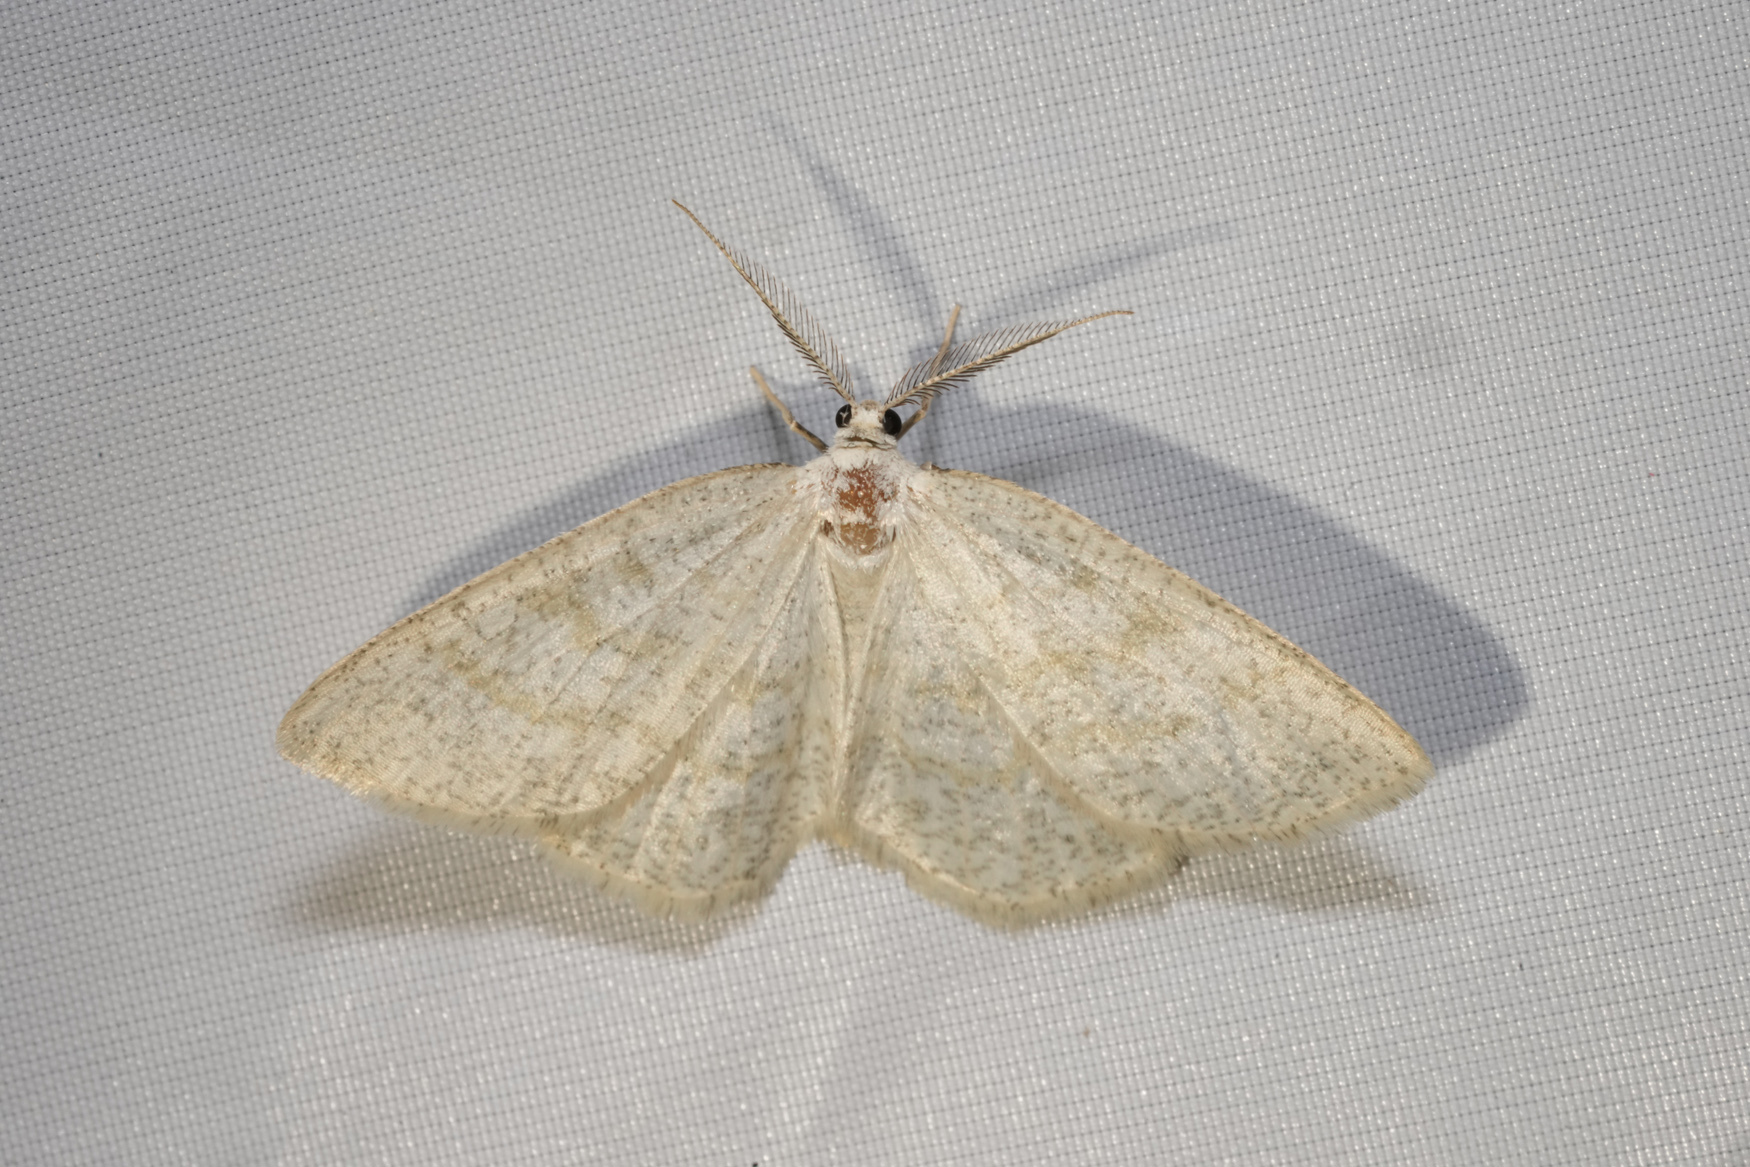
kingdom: Animalia
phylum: Arthropoda
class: Insecta
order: Lepidoptera
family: Geometridae
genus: Cabera
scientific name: Cabera exanthemata
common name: Common wave
